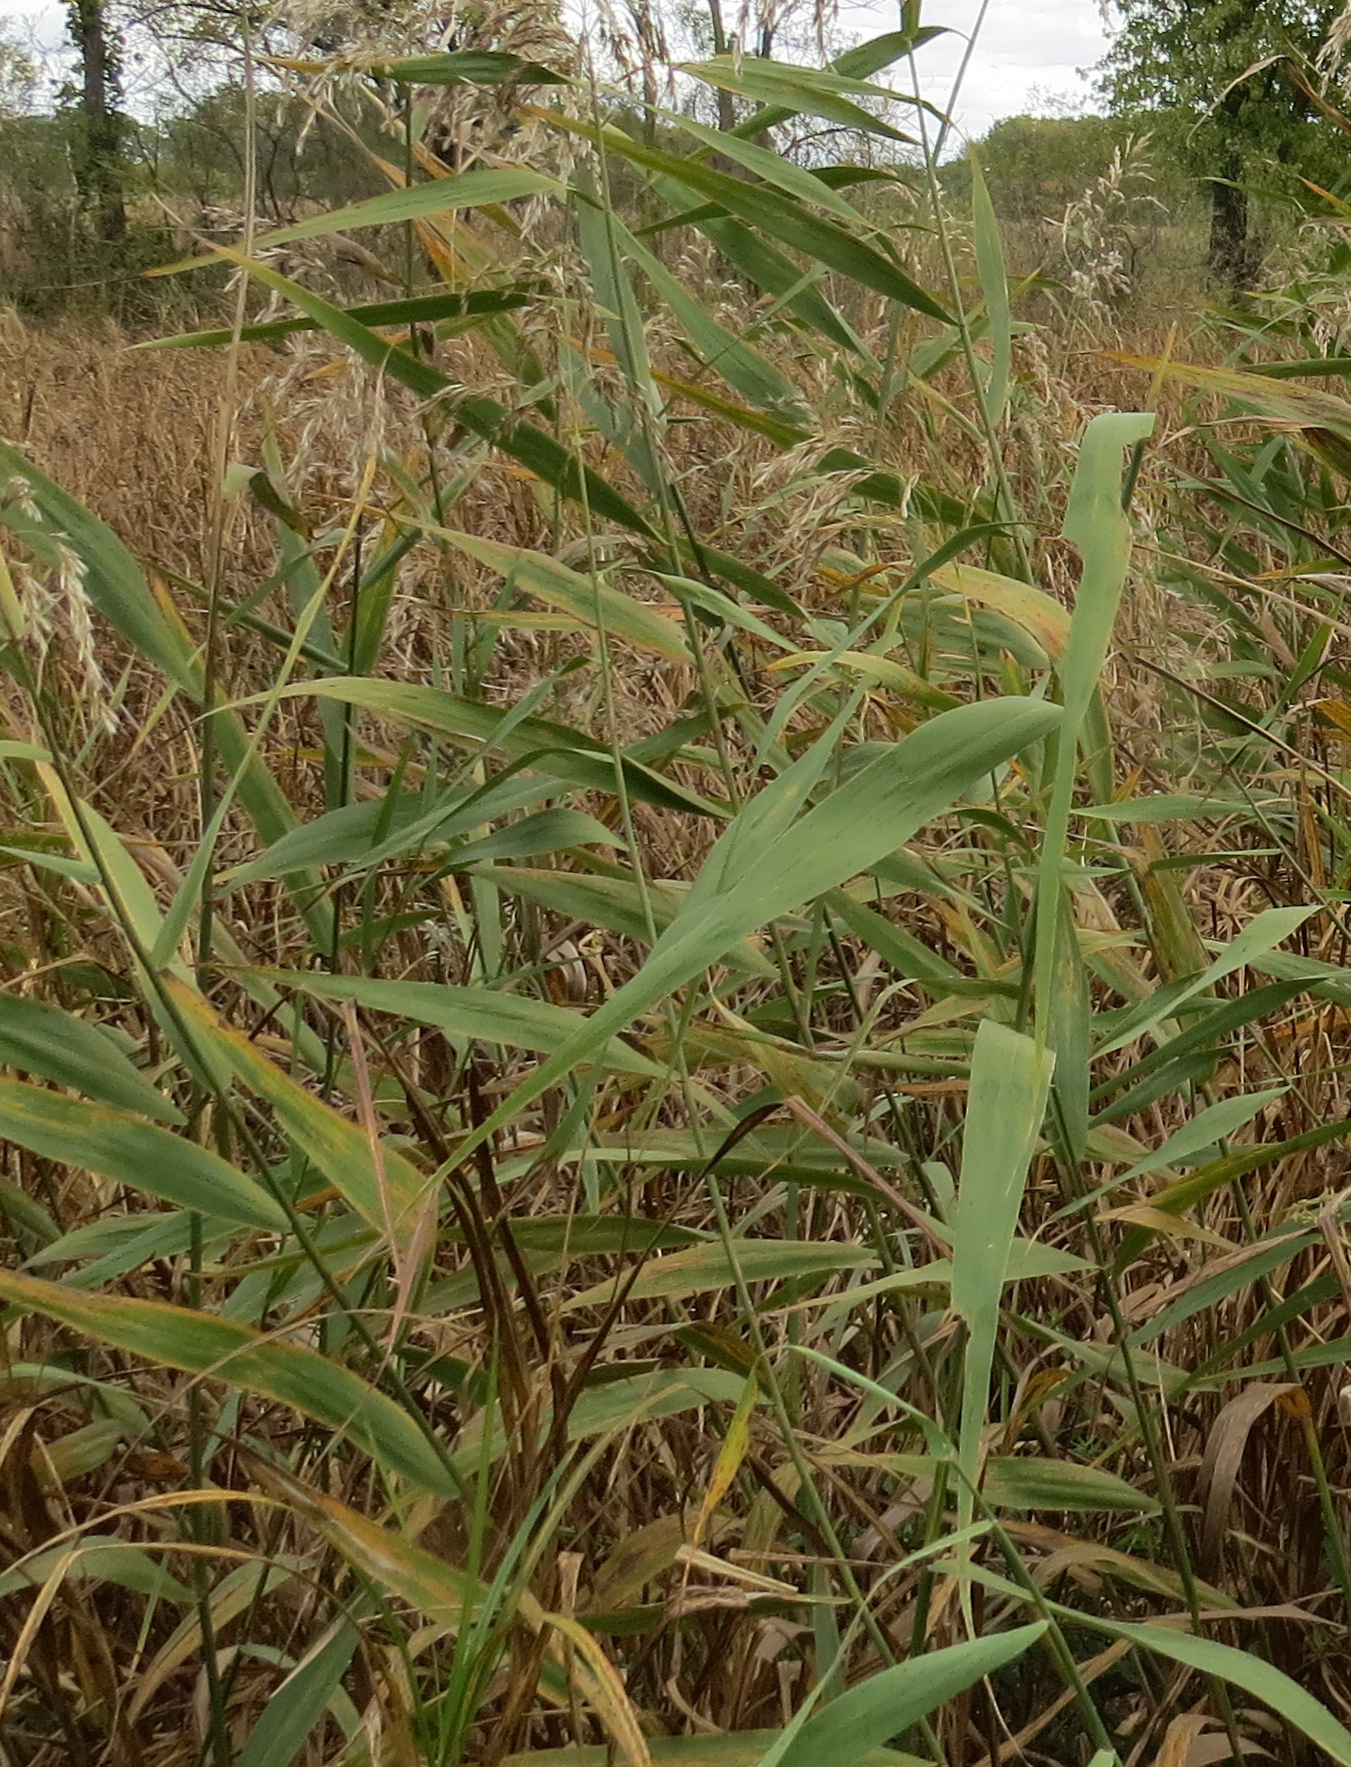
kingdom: Plantae
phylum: Tracheophyta
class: Liliopsida
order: Poales
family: Poaceae
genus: Phragmites
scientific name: Phragmites australis
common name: Common reed
